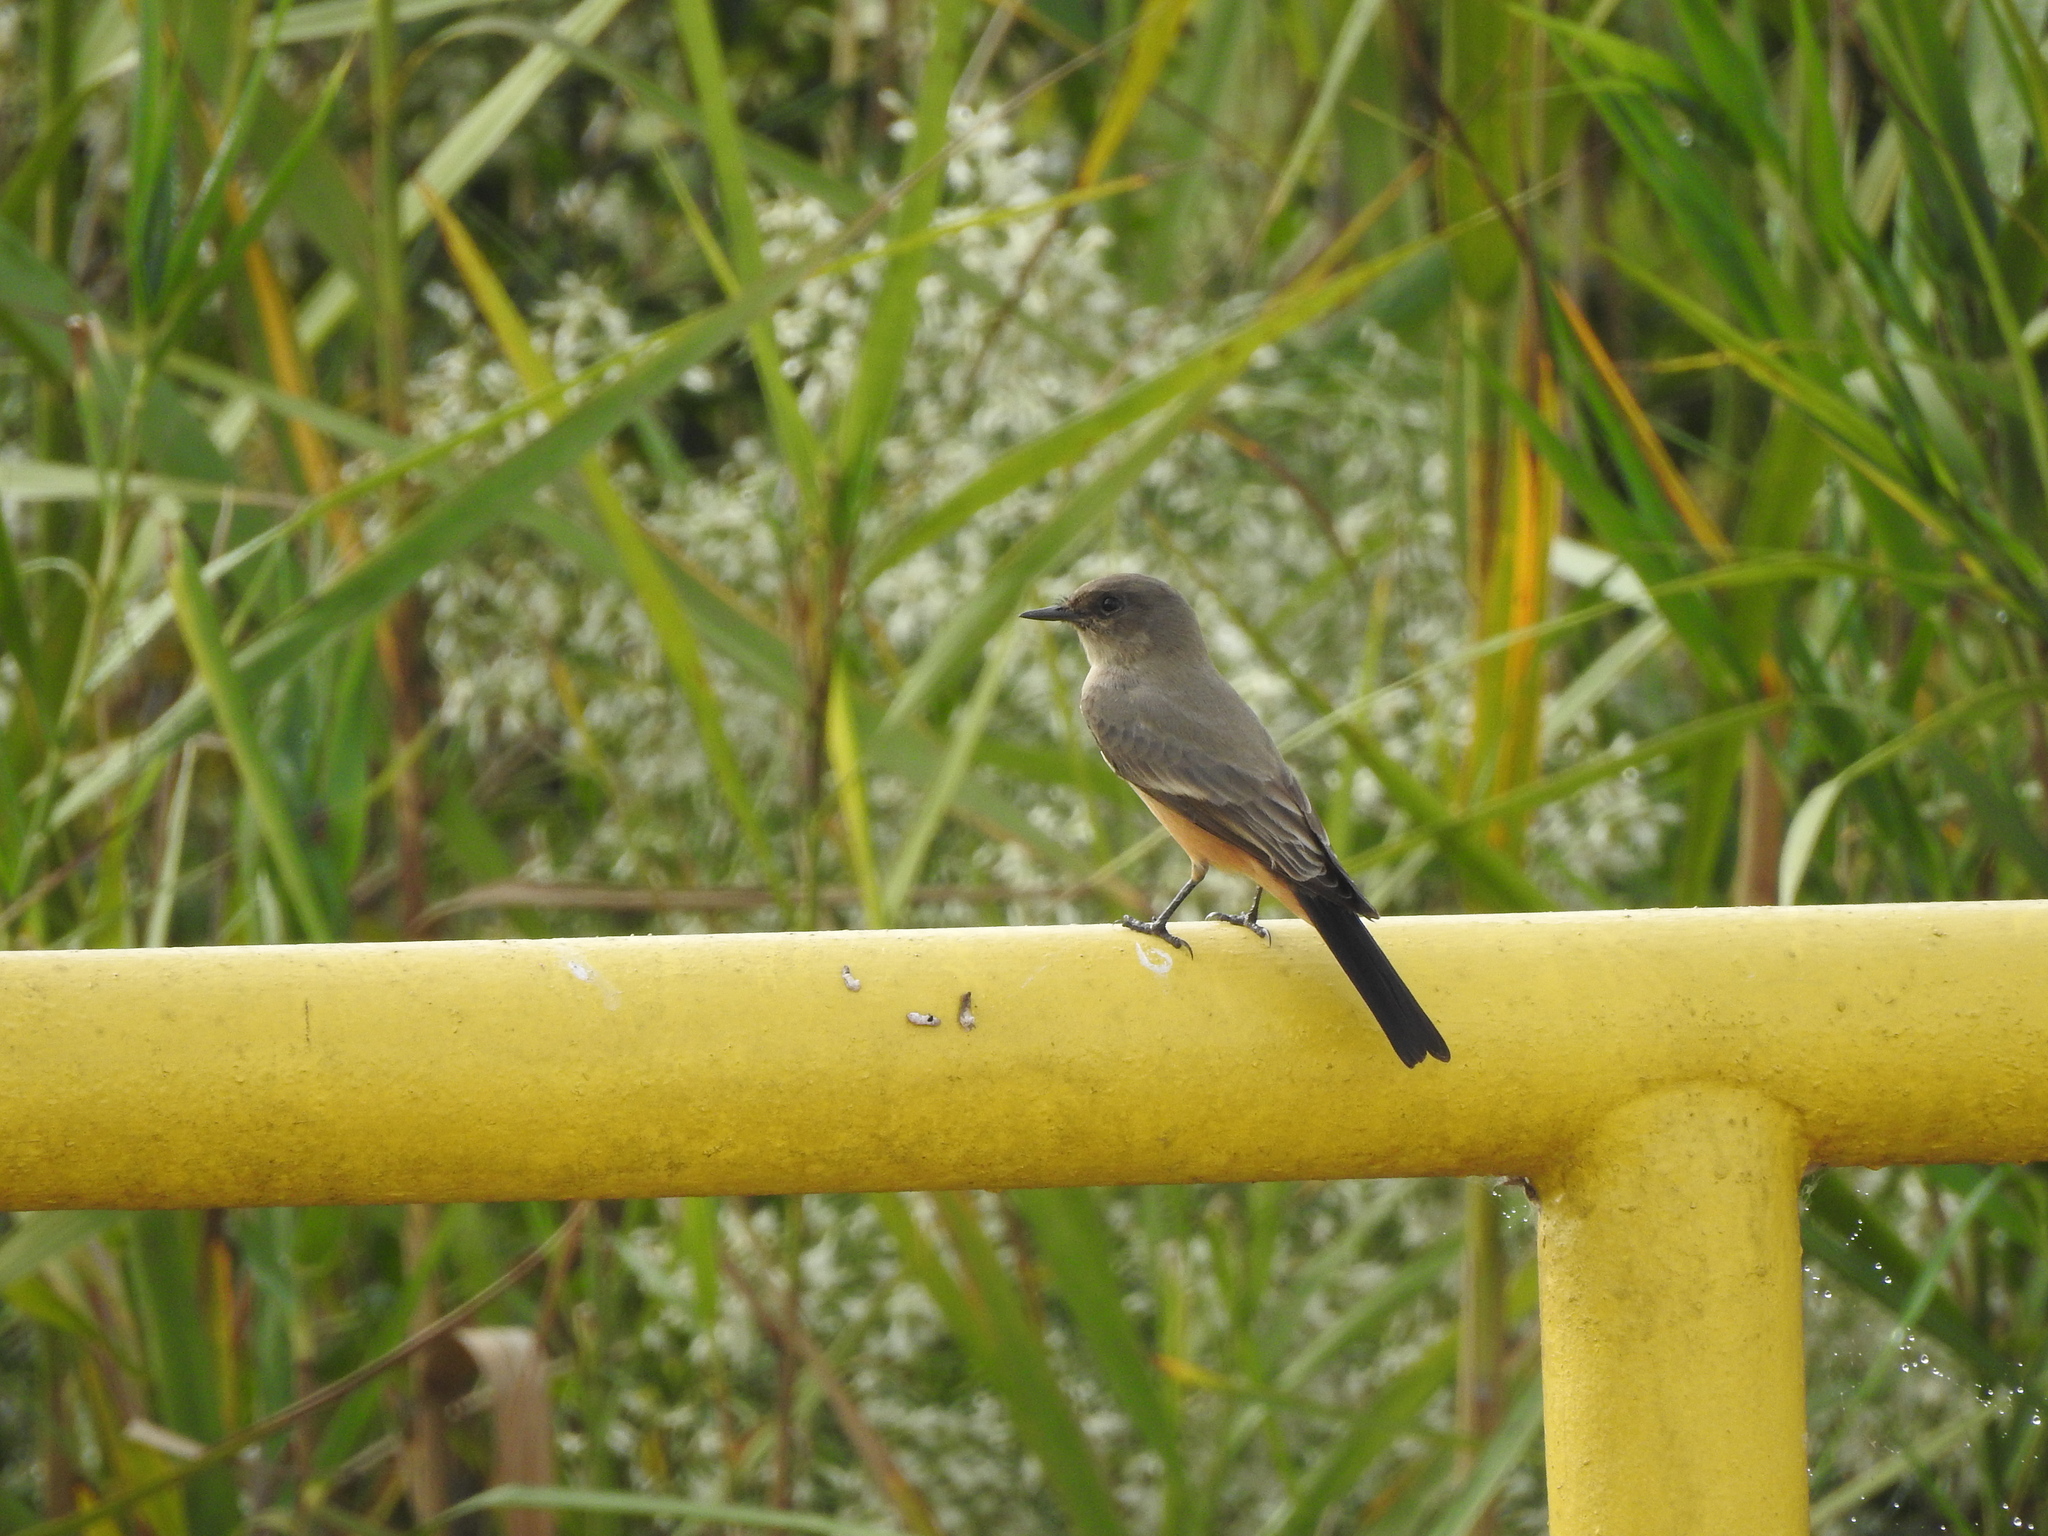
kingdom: Animalia
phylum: Chordata
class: Aves
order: Passeriformes
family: Tyrannidae
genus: Sayornis
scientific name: Sayornis saya
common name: Say's phoebe
